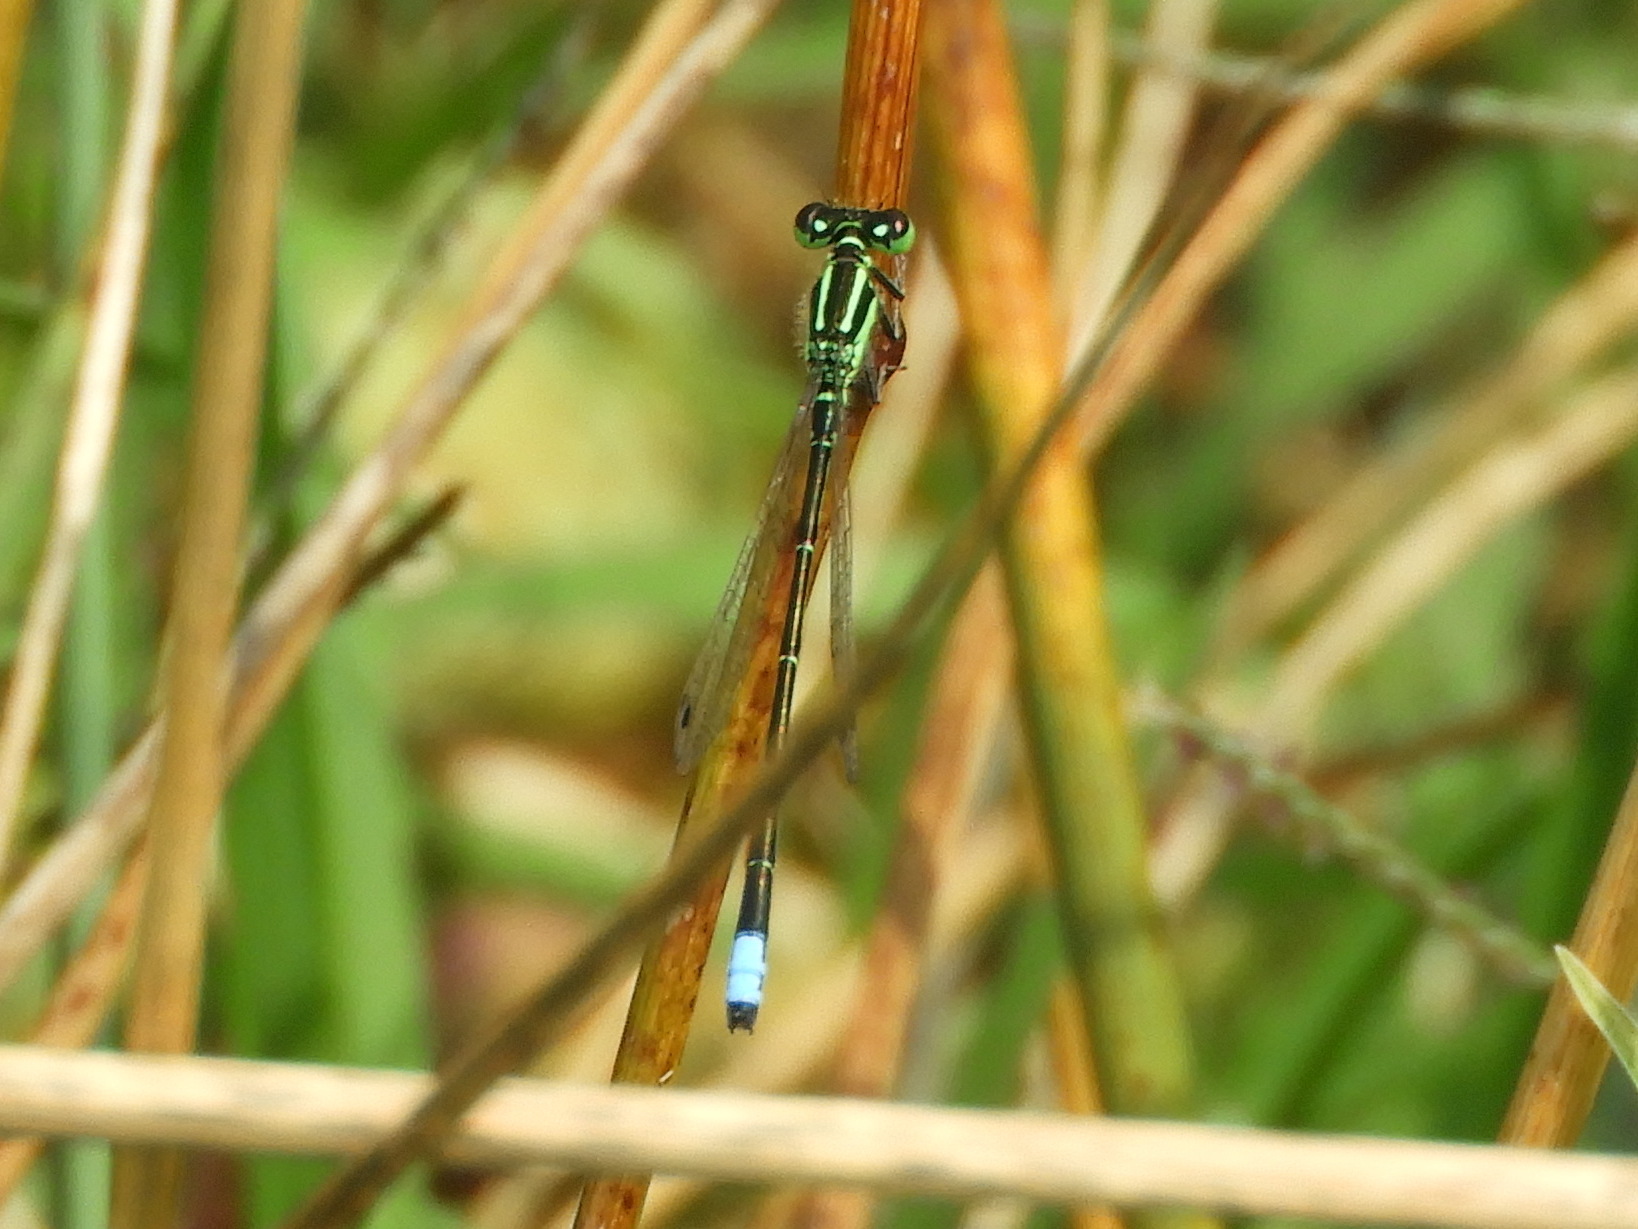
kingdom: Animalia
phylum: Arthropoda
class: Insecta
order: Odonata
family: Coenagrionidae
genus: Ischnura
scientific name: Ischnura verticalis
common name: Eastern forktail
